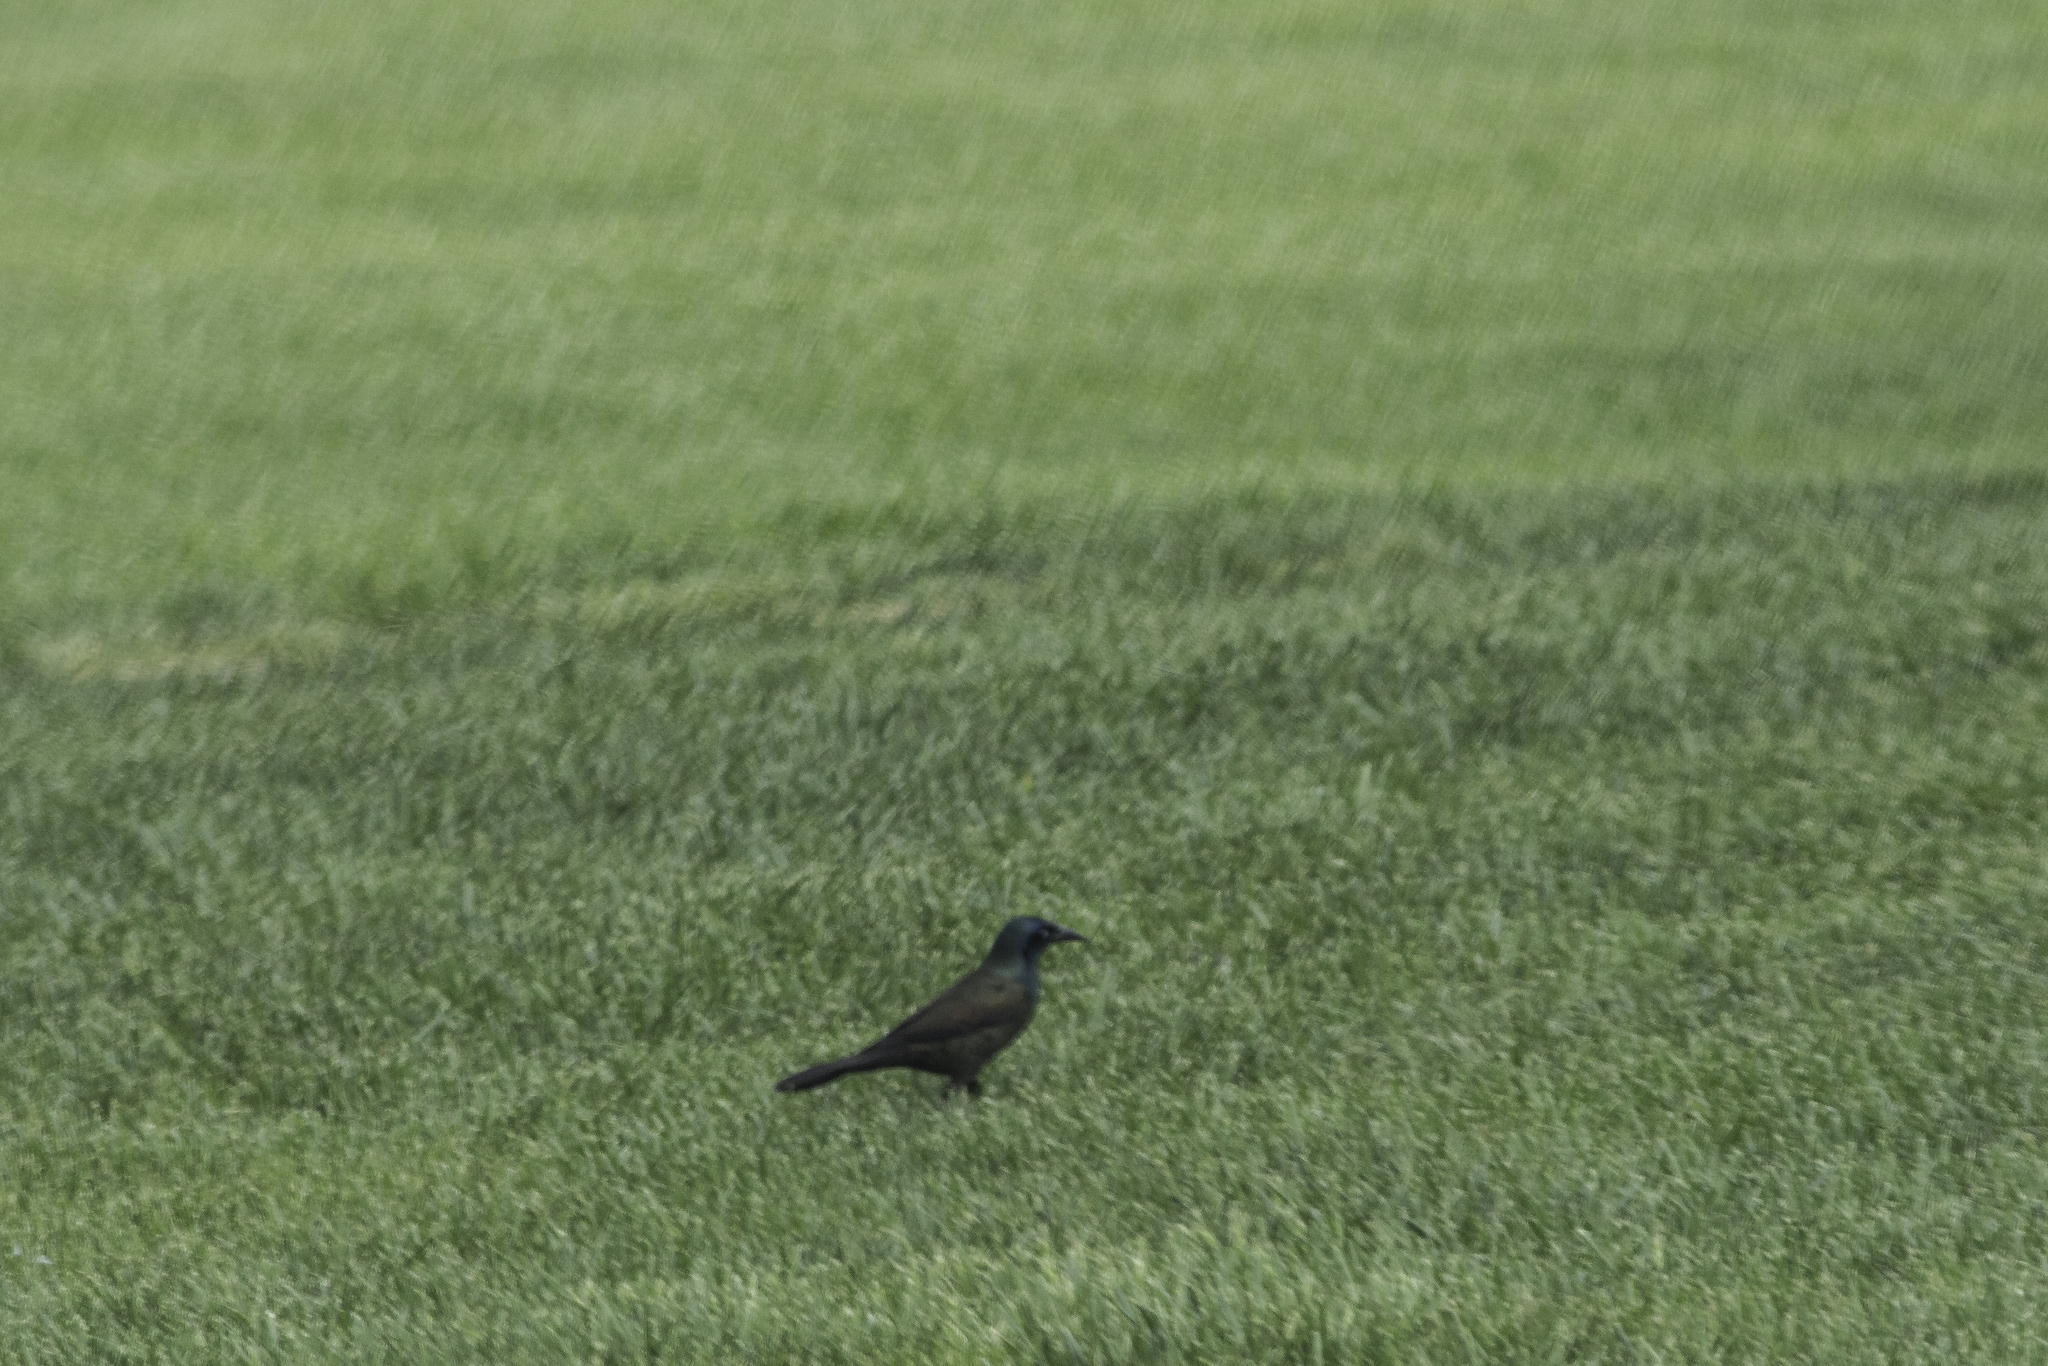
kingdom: Animalia
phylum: Chordata
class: Aves
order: Passeriformes
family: Icteridae
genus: Quiscalus
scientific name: Quiscalus quiscula
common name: Common grackle
